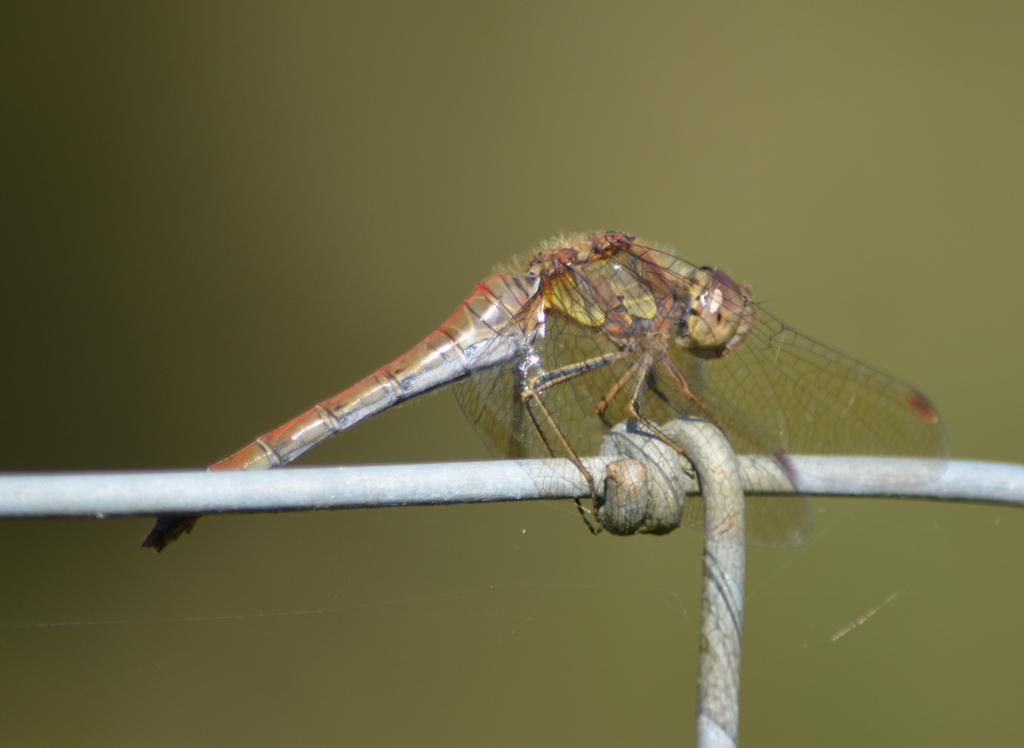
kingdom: Animalia
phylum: Arthropoda
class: Insecta
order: Odonata
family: Libellulidae
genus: Sympetrum
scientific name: Sympetrum striolatum
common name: Common darter
